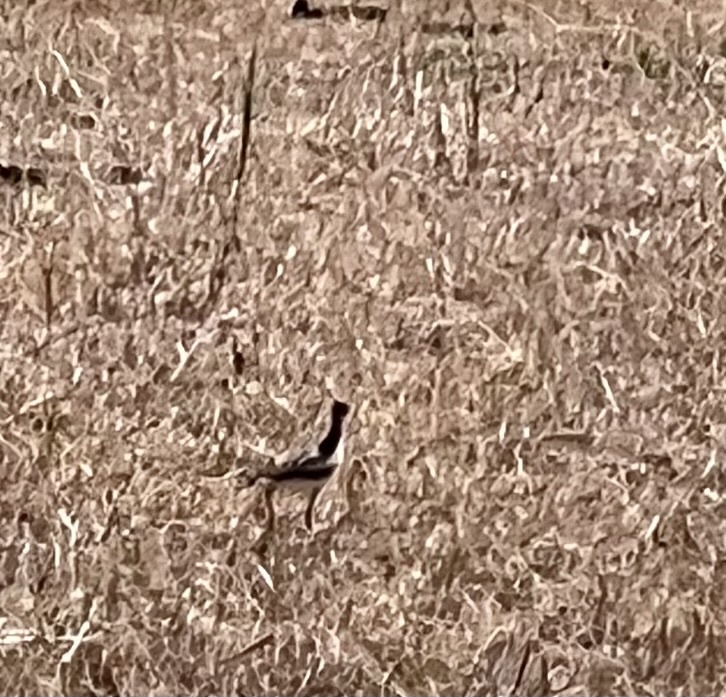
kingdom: Animalia
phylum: Chordata
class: Aves
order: Charadriiformes
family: Scolopacidae
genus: Bartramia
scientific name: Bartramia longicauda
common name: Upland sandpiper
